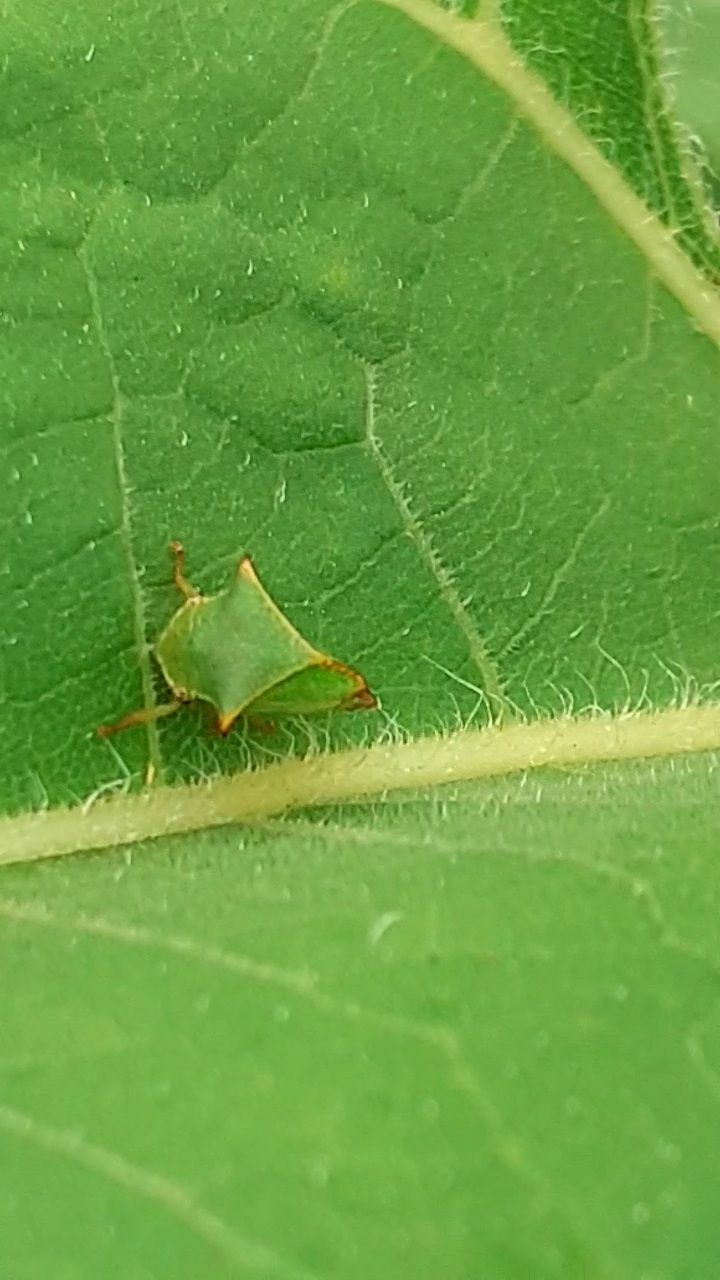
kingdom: Animalia
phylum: Arthropoda
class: Insecta
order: Hemiptera
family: Membracidae
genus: Stictocephala
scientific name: Stictocephala bisonia
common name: American buffalo treehopper
